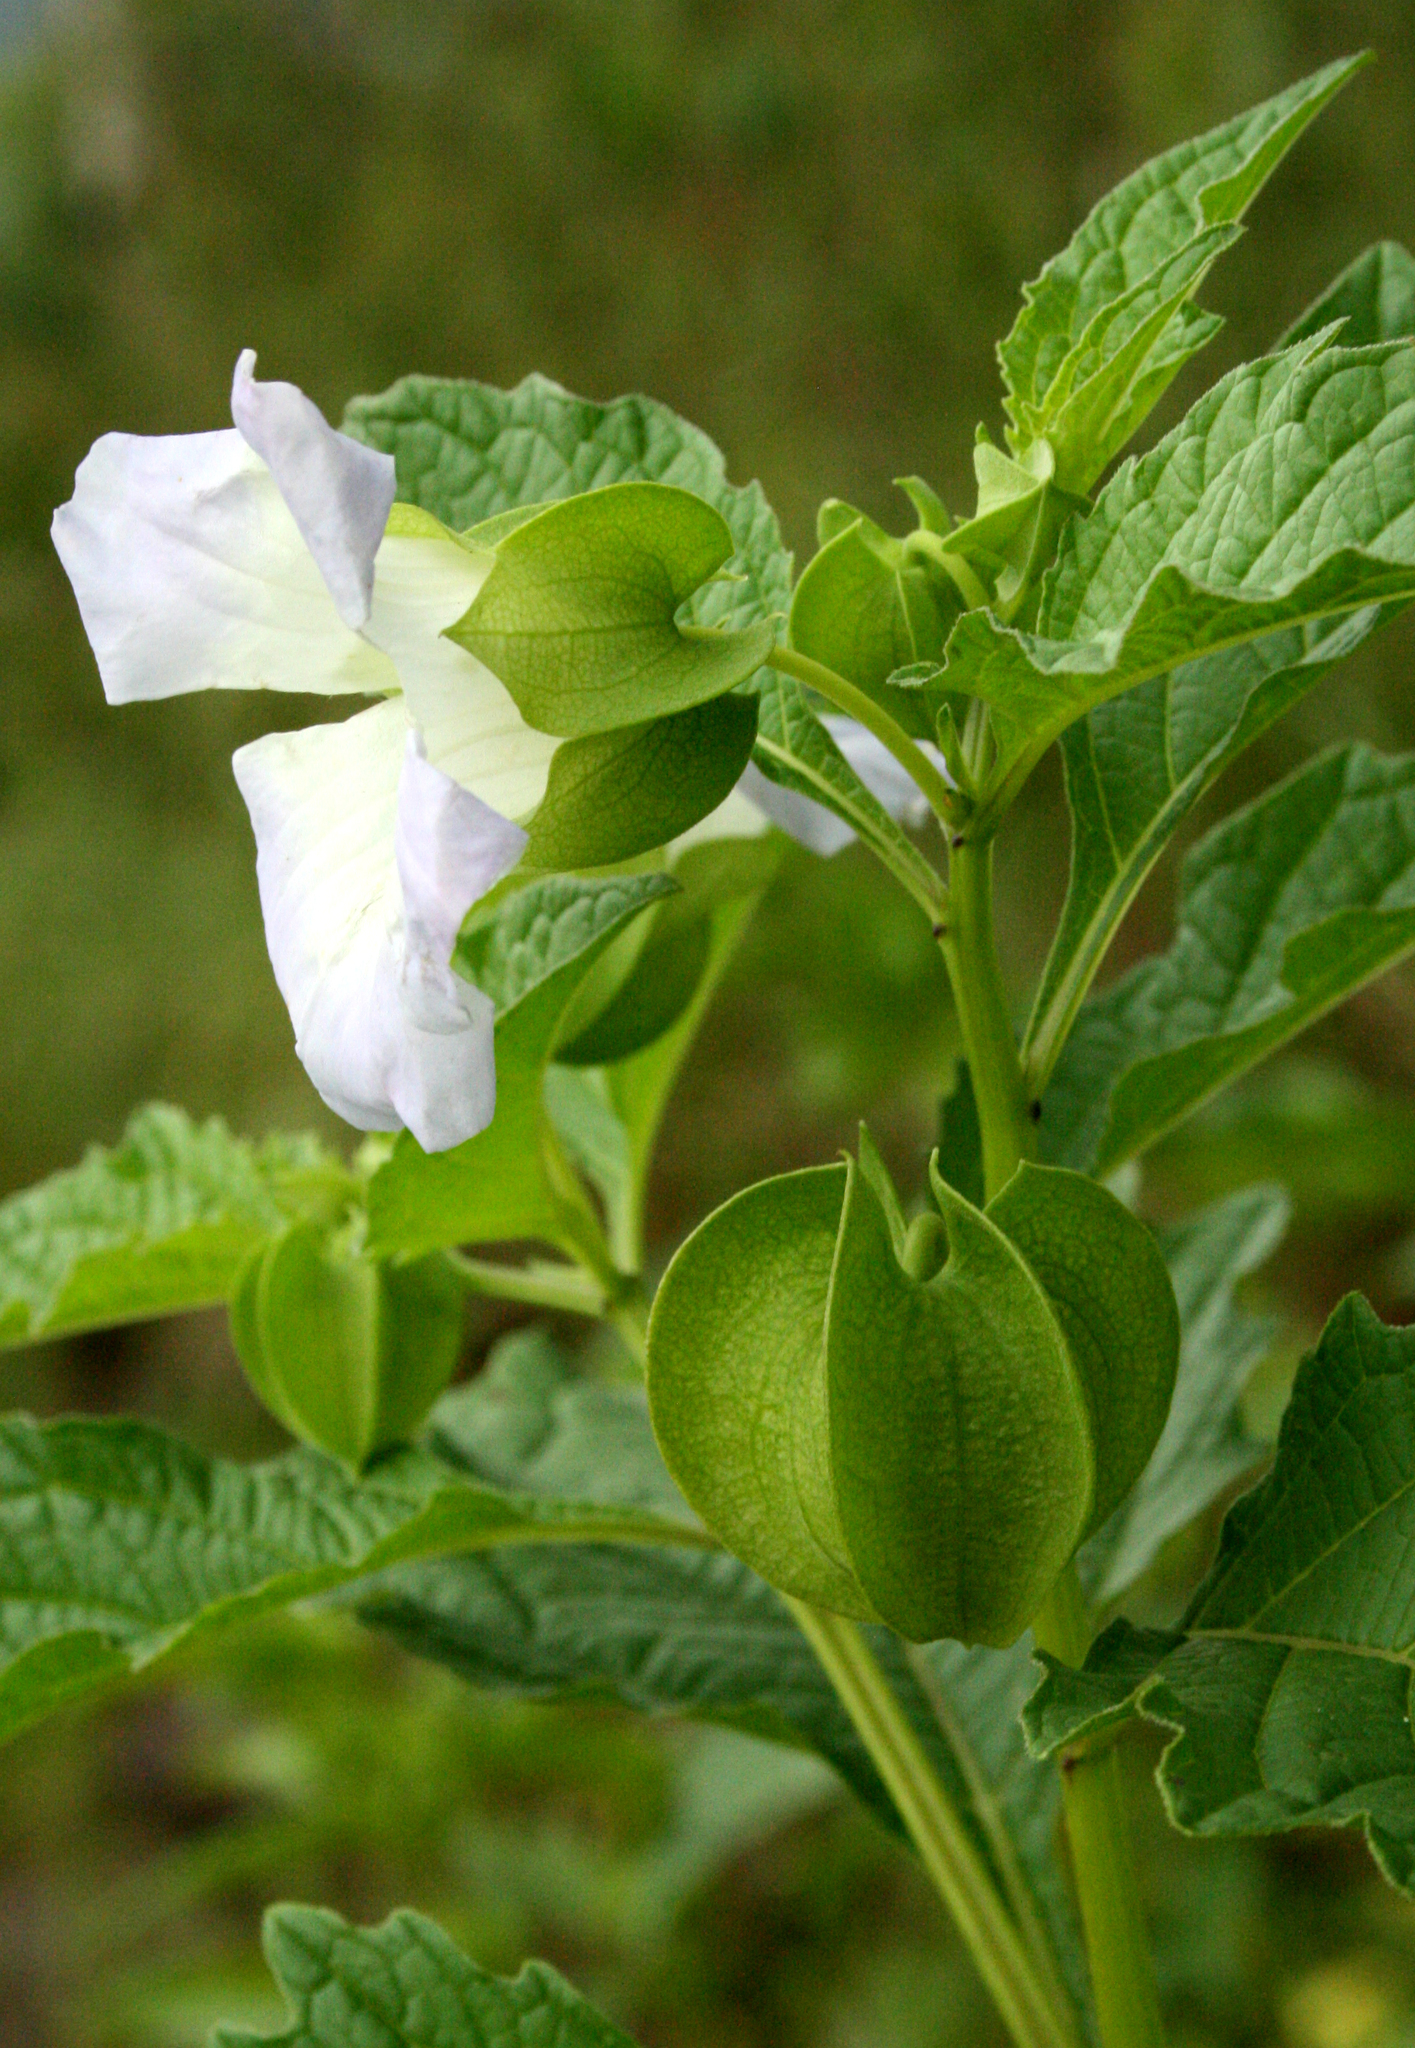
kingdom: Plantae
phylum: Tracheophyta
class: Magnoliopsida
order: Solanales
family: Solanaceae
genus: Nicandra
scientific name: Nicandra physalodes
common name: Apple-of-peru
